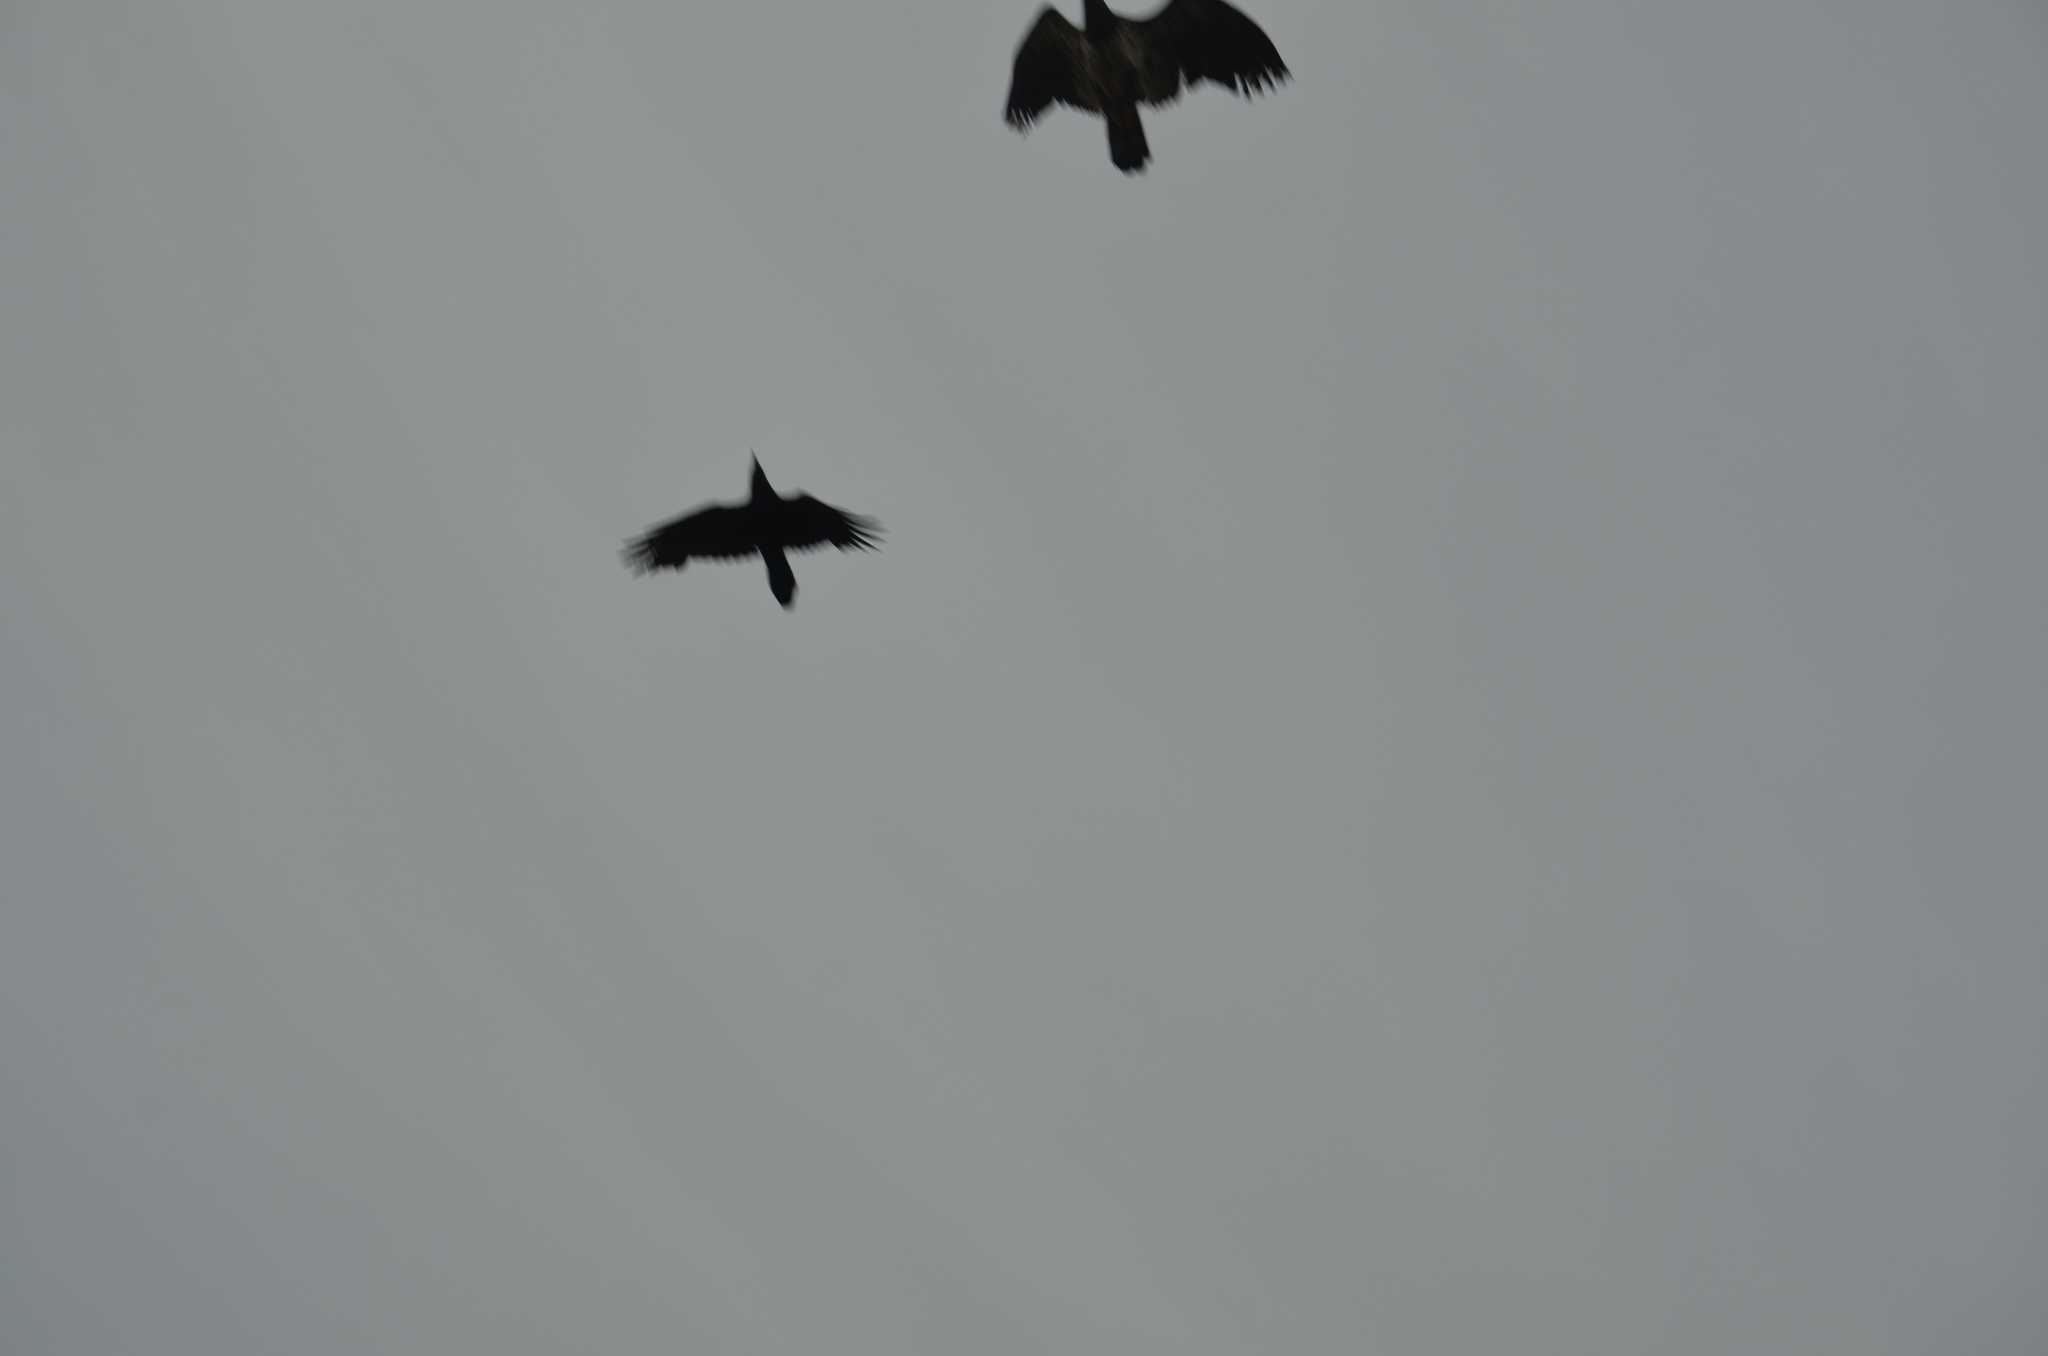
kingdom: Animalia
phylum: Chordata
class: Aves
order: Accipitriformes
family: Accipitridae
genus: Haliaeetus
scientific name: Haliaeetus leucocephalus
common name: Bald eagle
